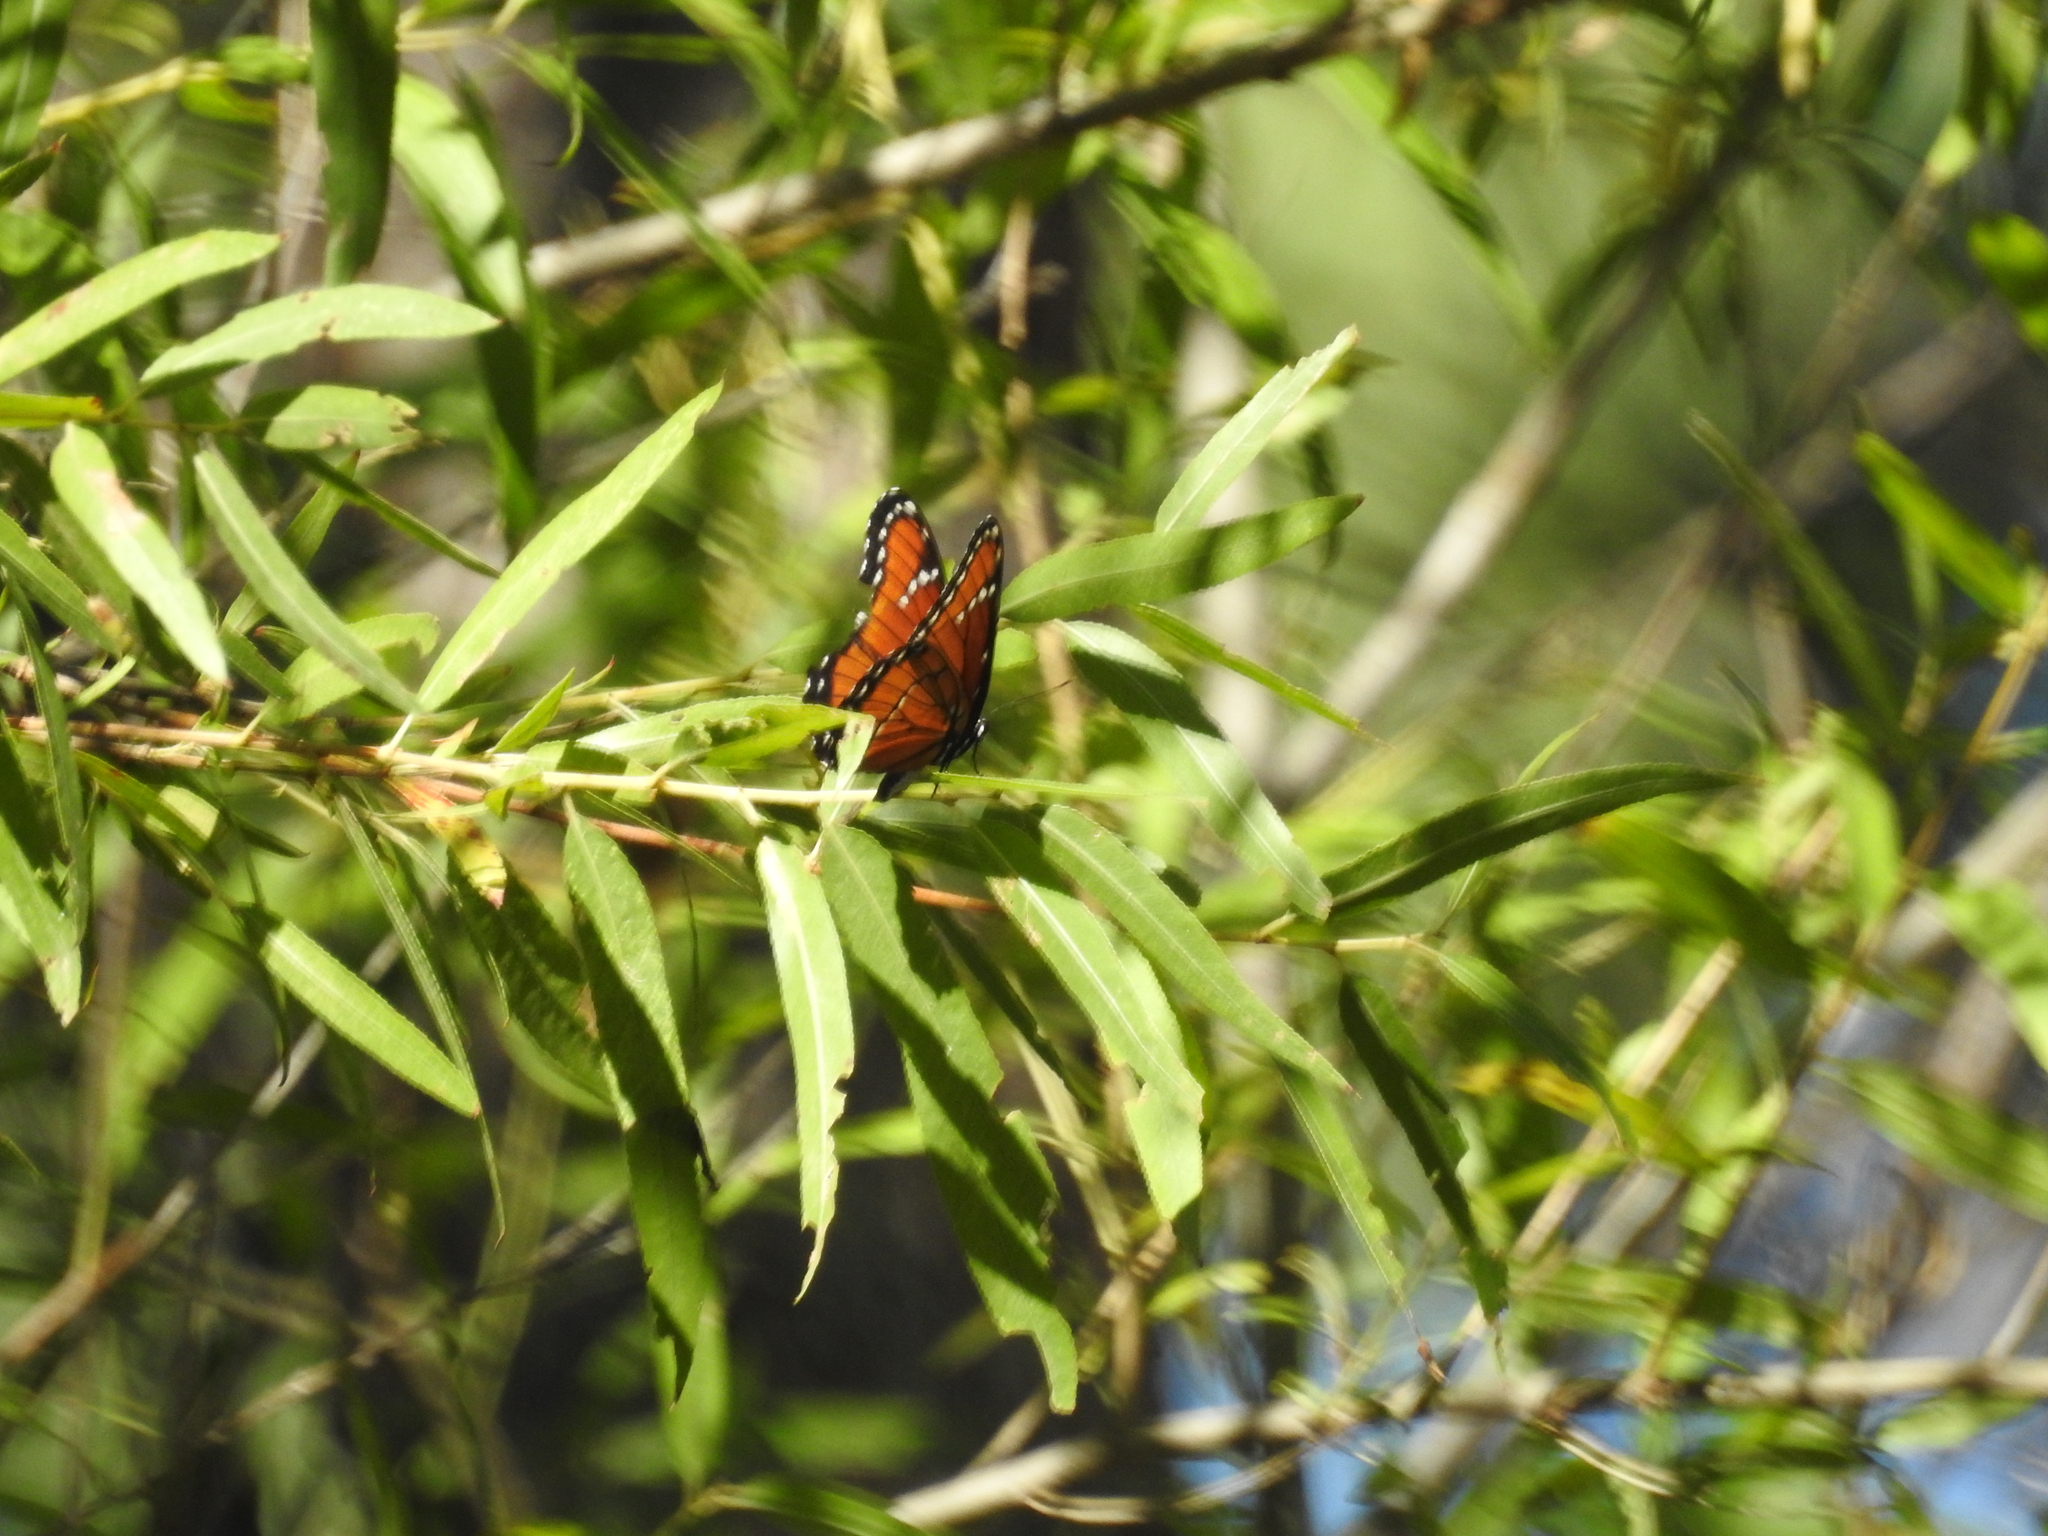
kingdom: Animalia
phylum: Arthropoda
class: Insecta
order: Lepidoptera
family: Nymphalidae
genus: Limenitis
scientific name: Limenitis archippus
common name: Viceroy
